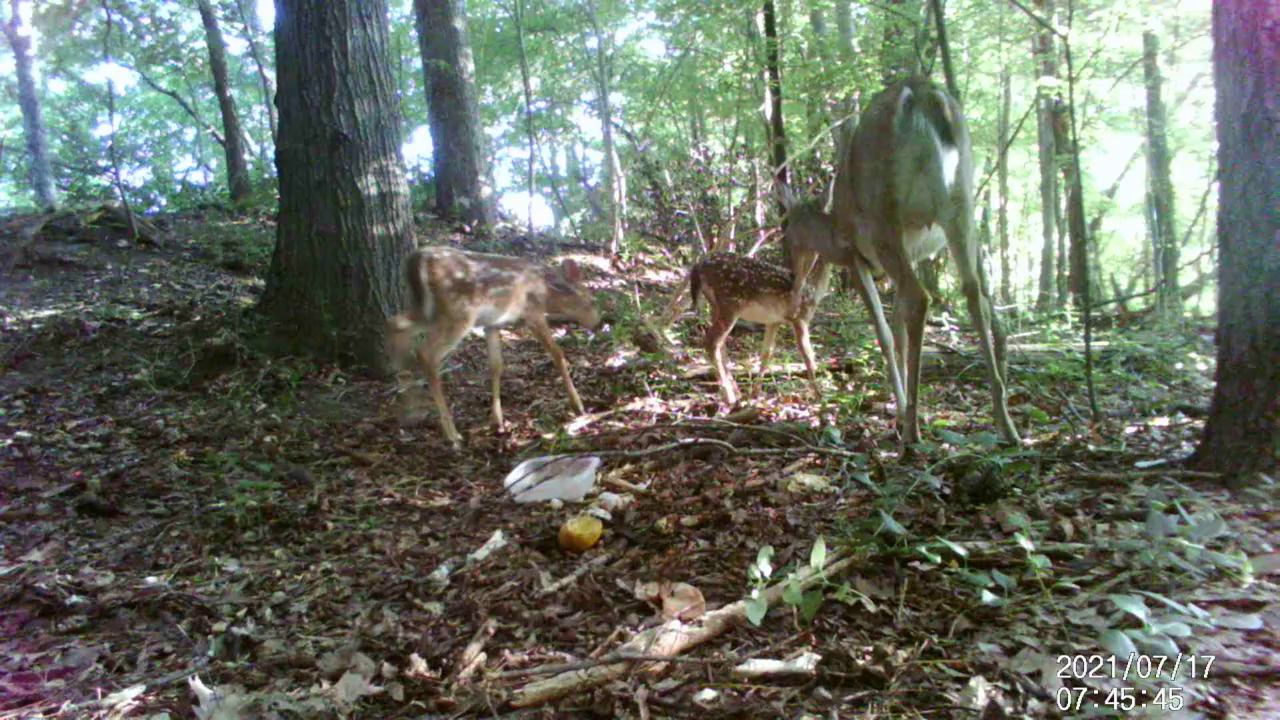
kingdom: Animalia
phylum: Chordata
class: Mammalia
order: Artiodactyla
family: Cervidae
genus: Odocoileus
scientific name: Odocoileus virginianus
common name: White-tailed deer
